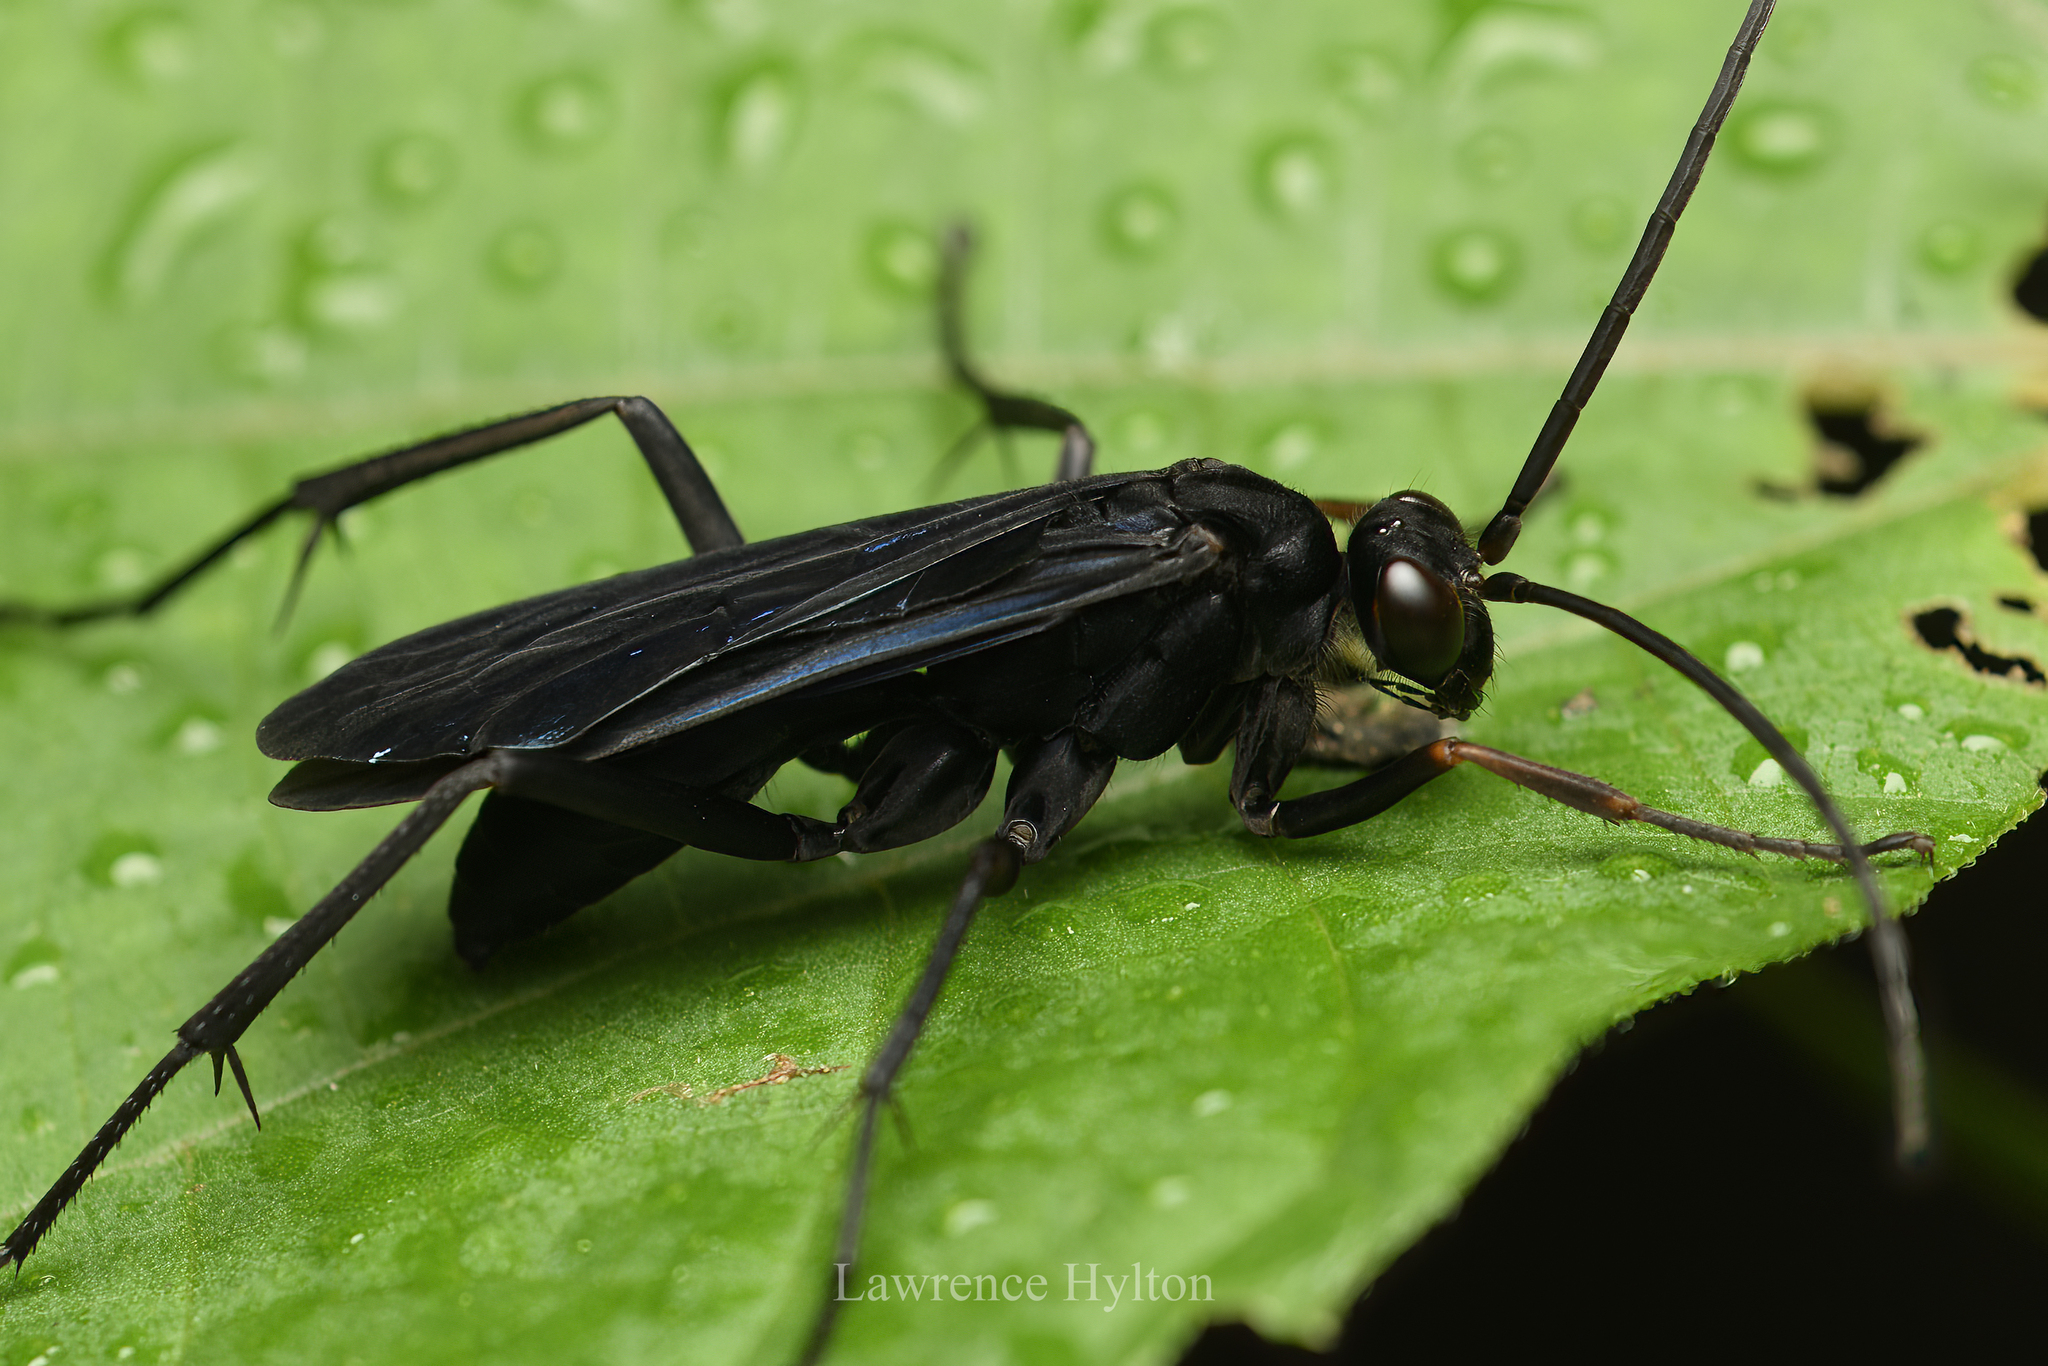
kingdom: Animalia
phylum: Arthropoda
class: Insecta
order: Hymenoptera
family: Pompilidae
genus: Cyphononyx
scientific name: Cyphononyx bipartitus
